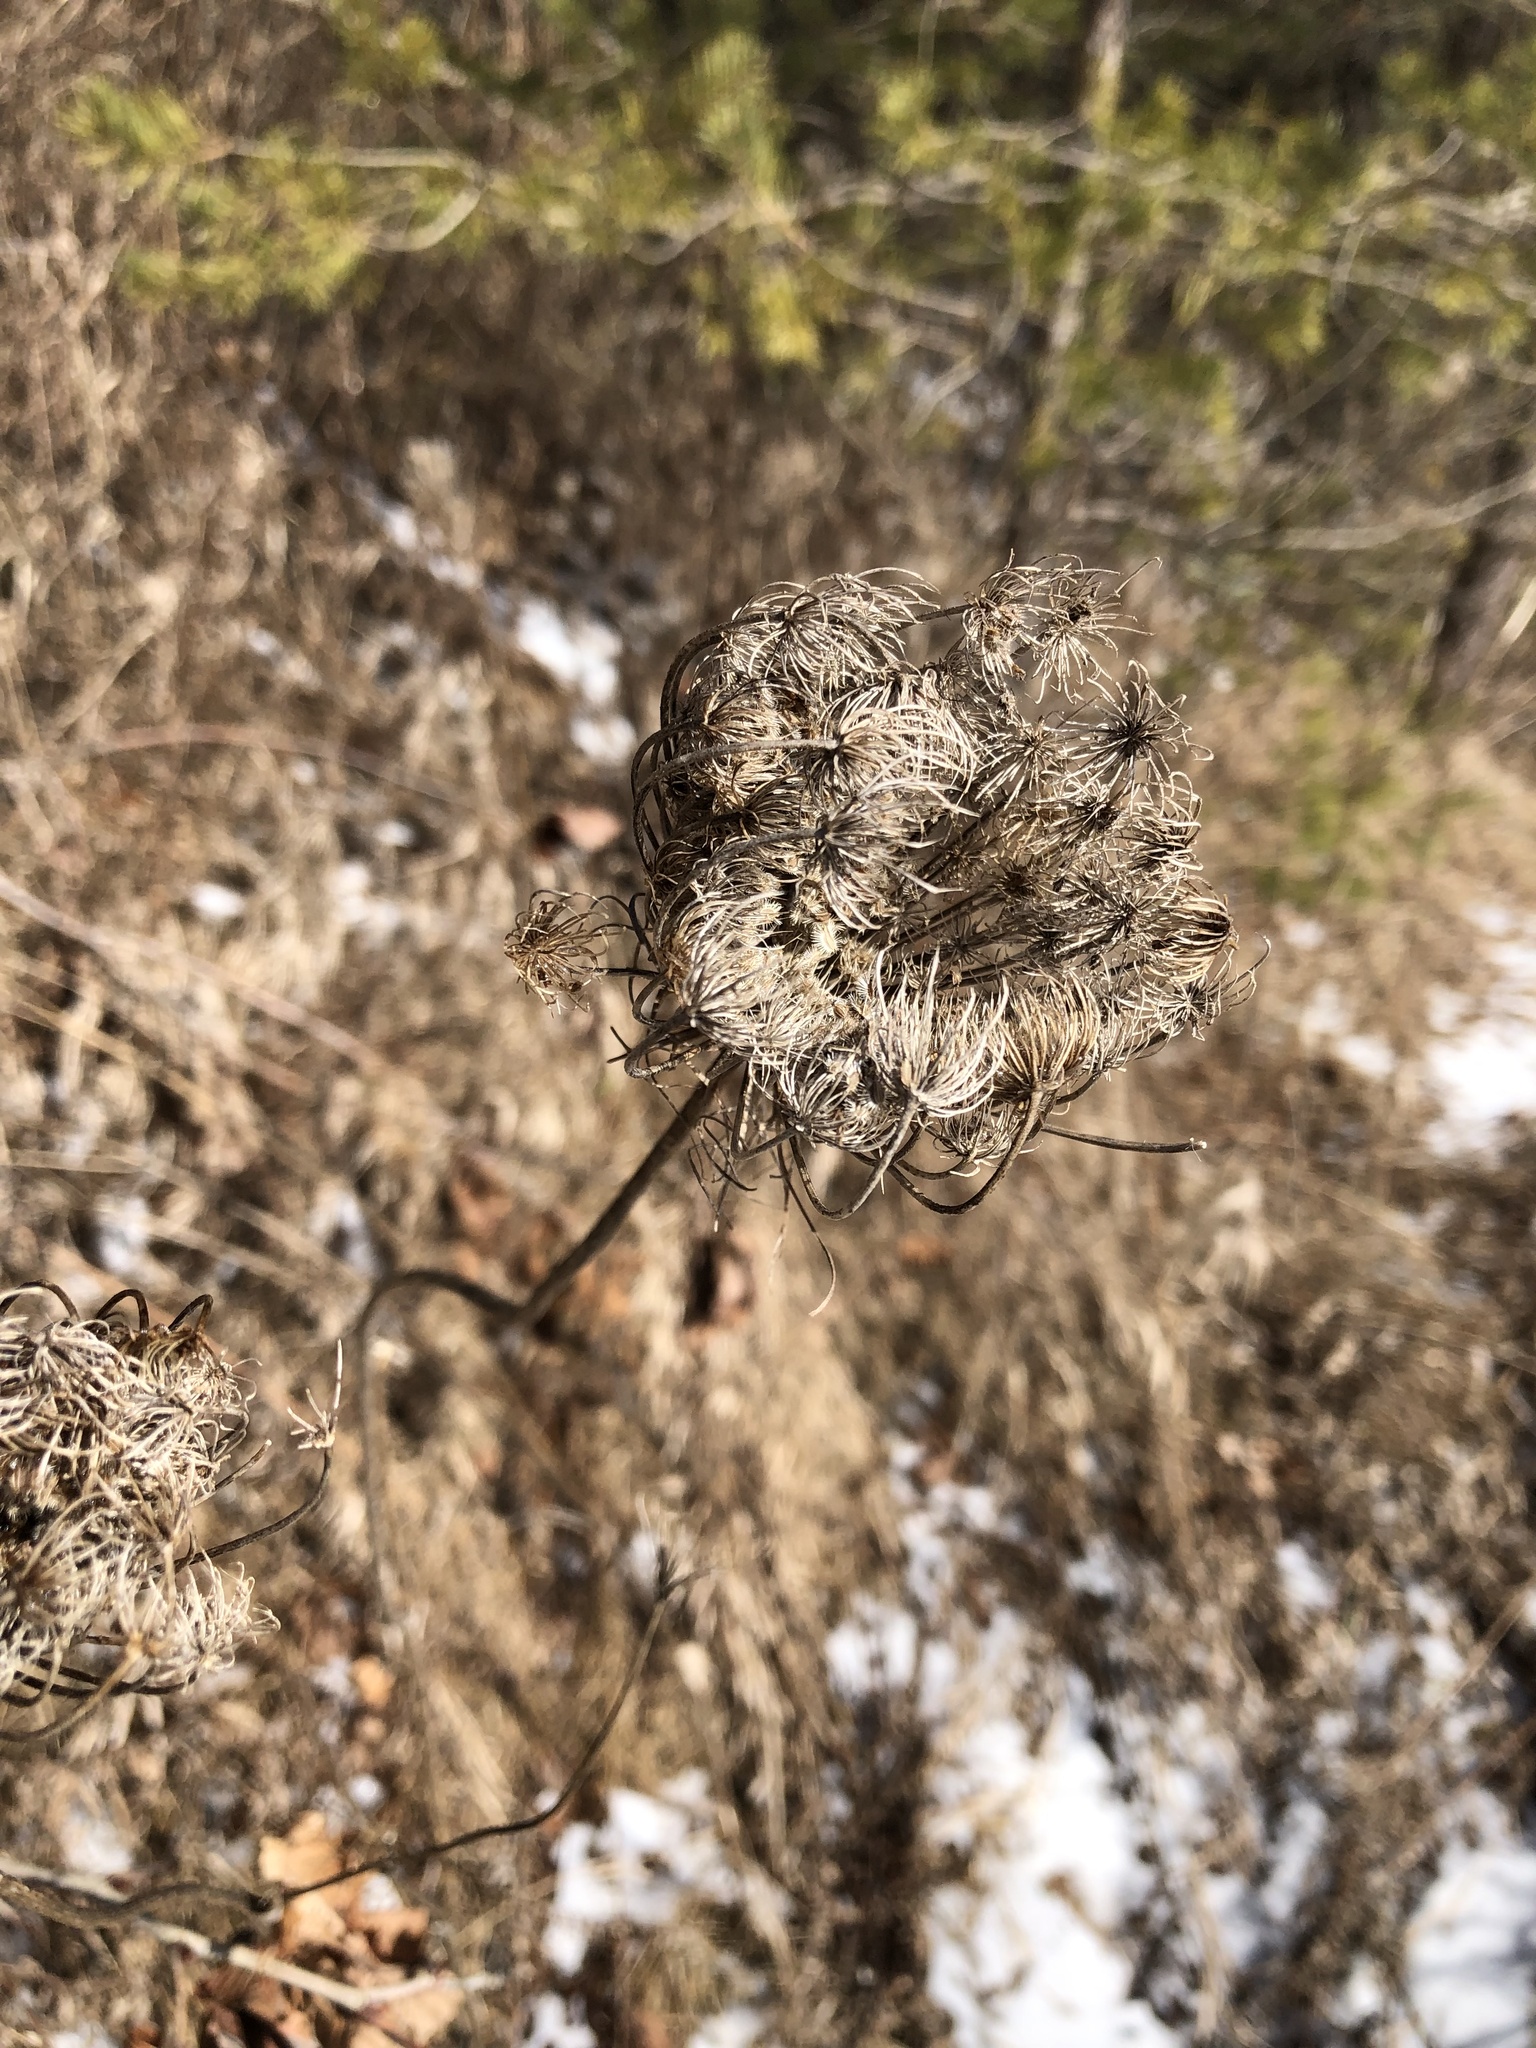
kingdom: Plantae
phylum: Tracheophyta
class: Magnoliopsida
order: Apiales
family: Apiaceae
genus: Daucus
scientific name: Daucus carota
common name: Wild carrot
